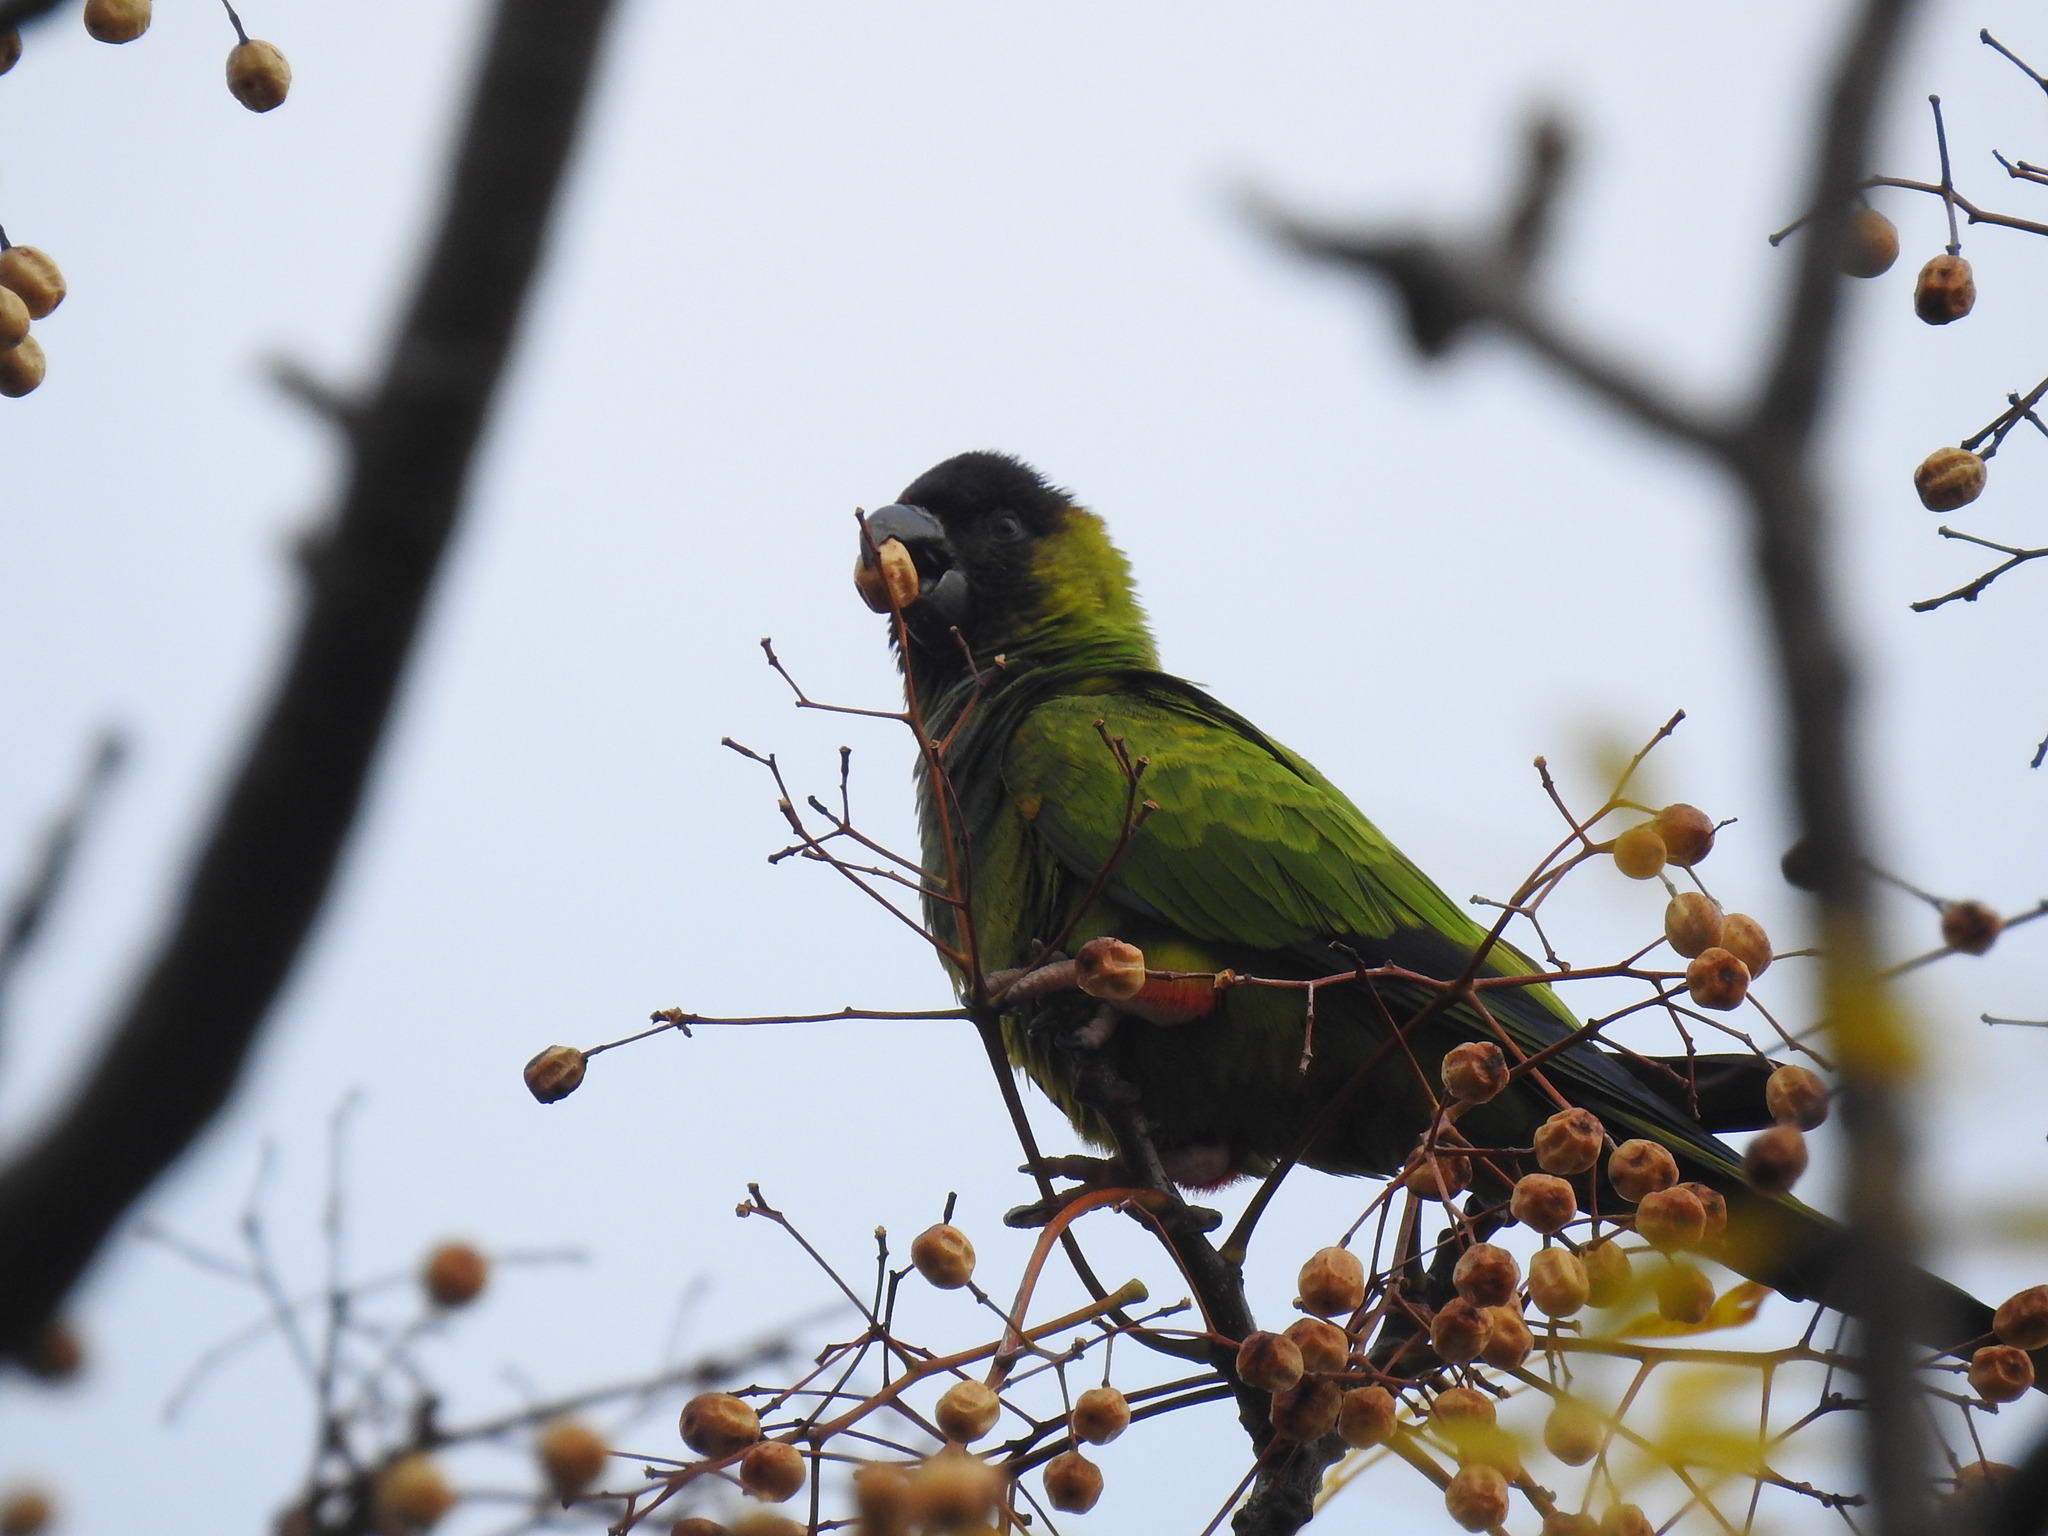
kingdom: Animalia
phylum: Chordata
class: Aves
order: Psittaciformes
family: Psittacidae
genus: Nandayus
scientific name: Nandayus nenday
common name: Nanday parakeet
